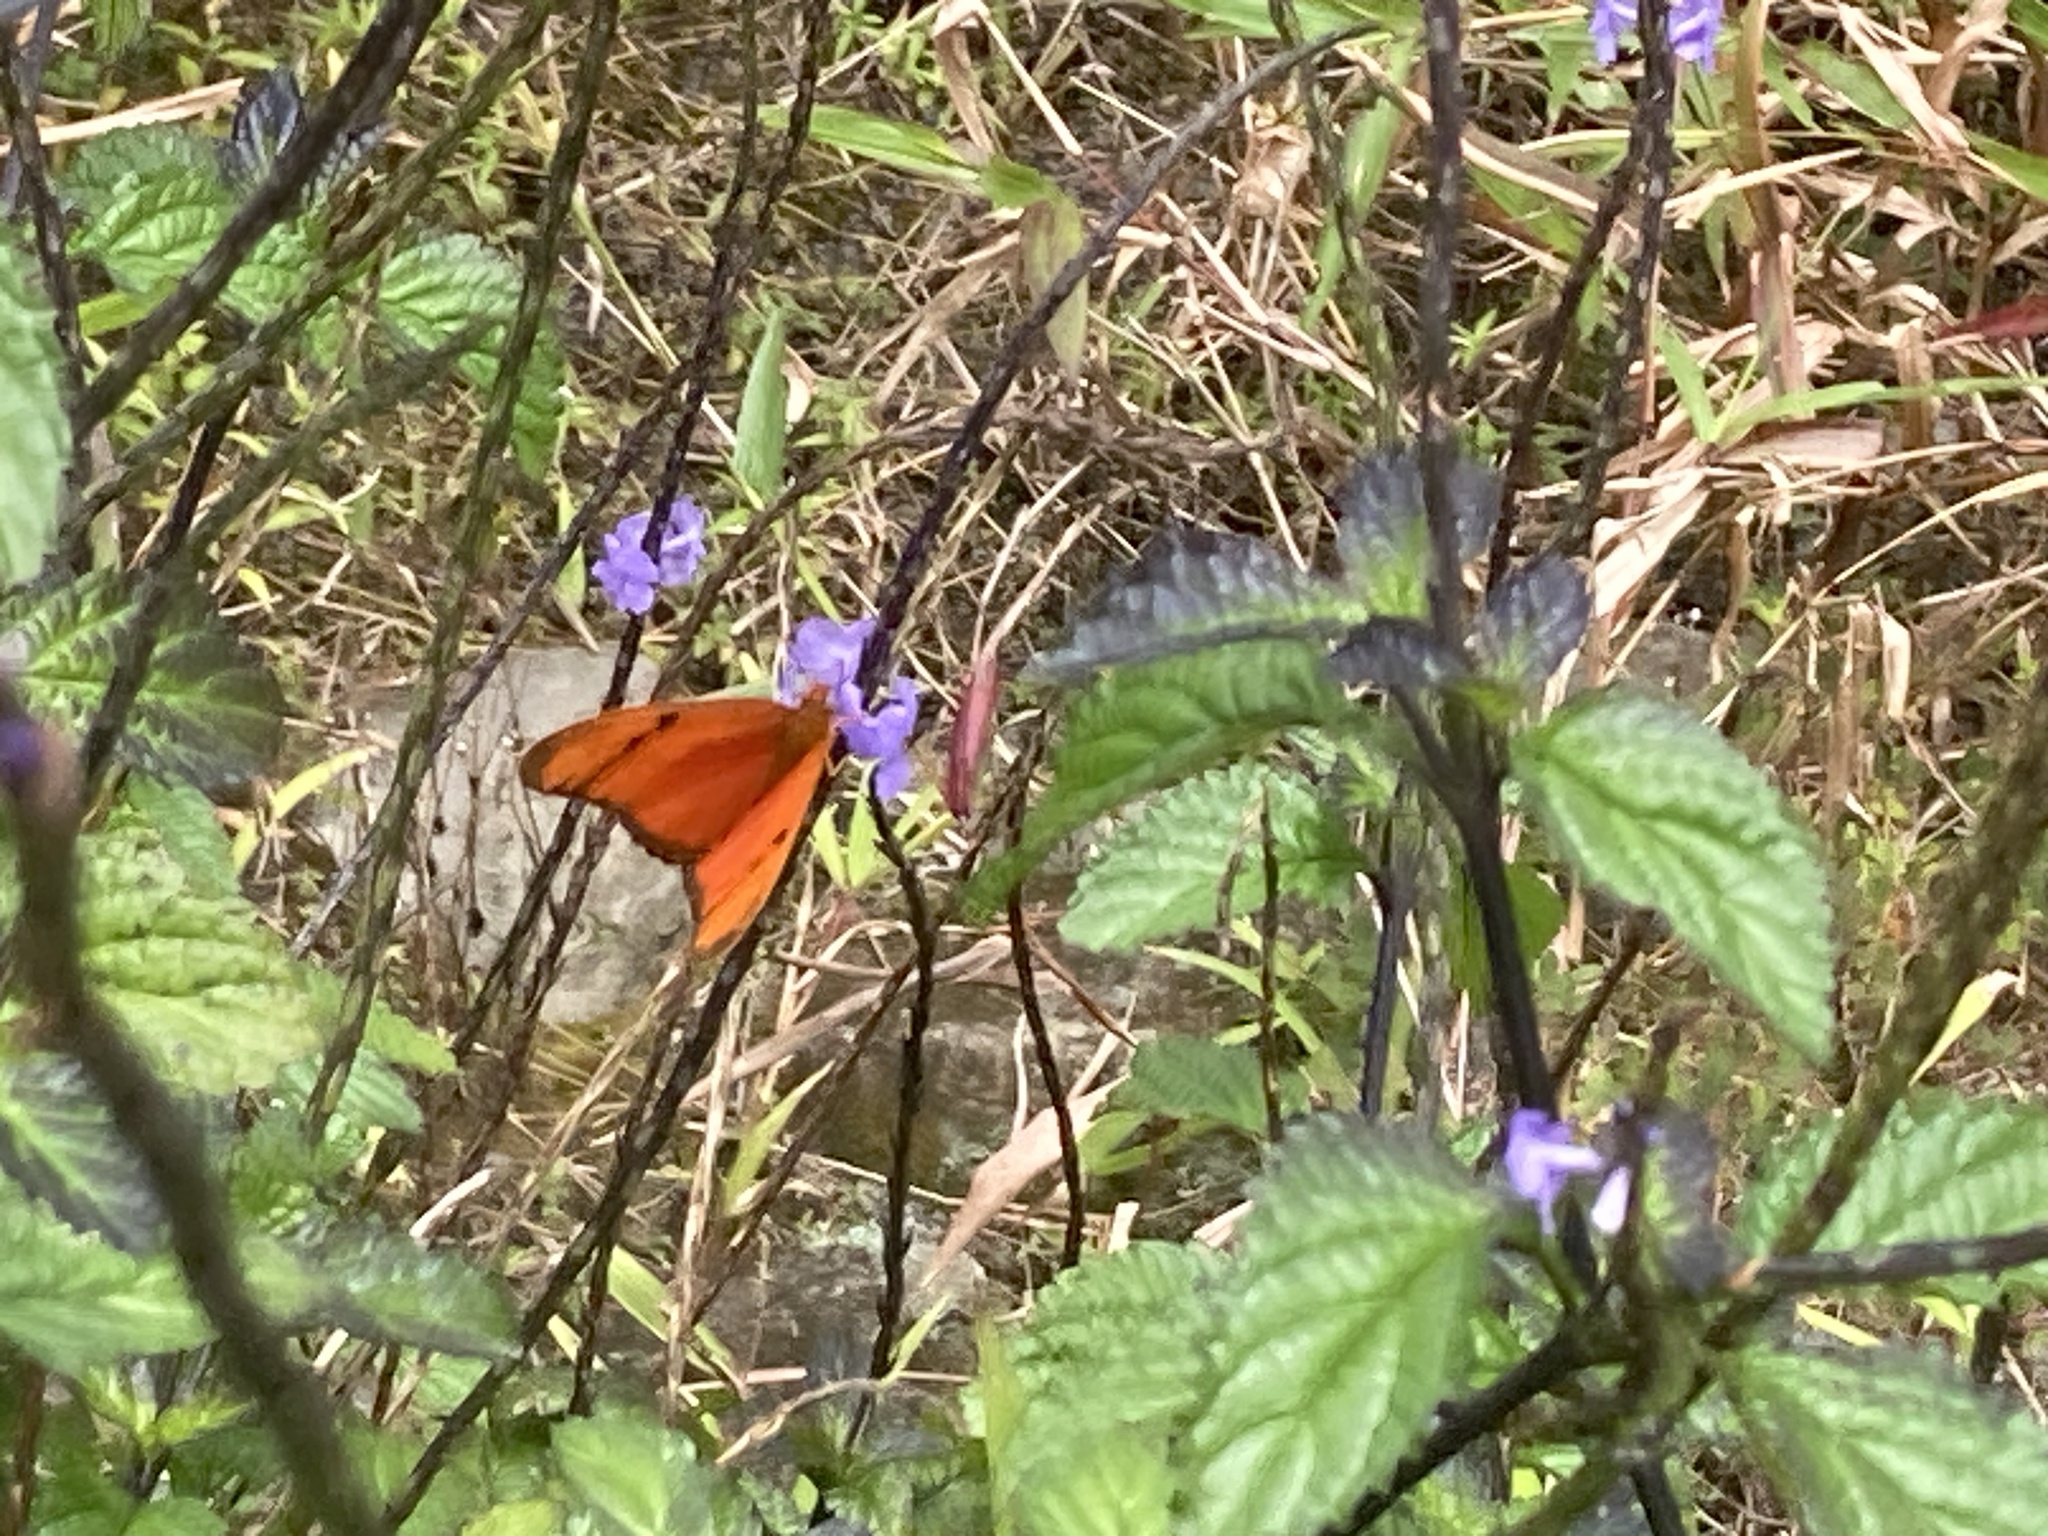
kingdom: Animalia
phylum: Arthropoda
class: Insecta
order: Lepidoptera
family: Nymphalidae
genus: Dryas
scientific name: Dryas iulia
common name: Flambeau
